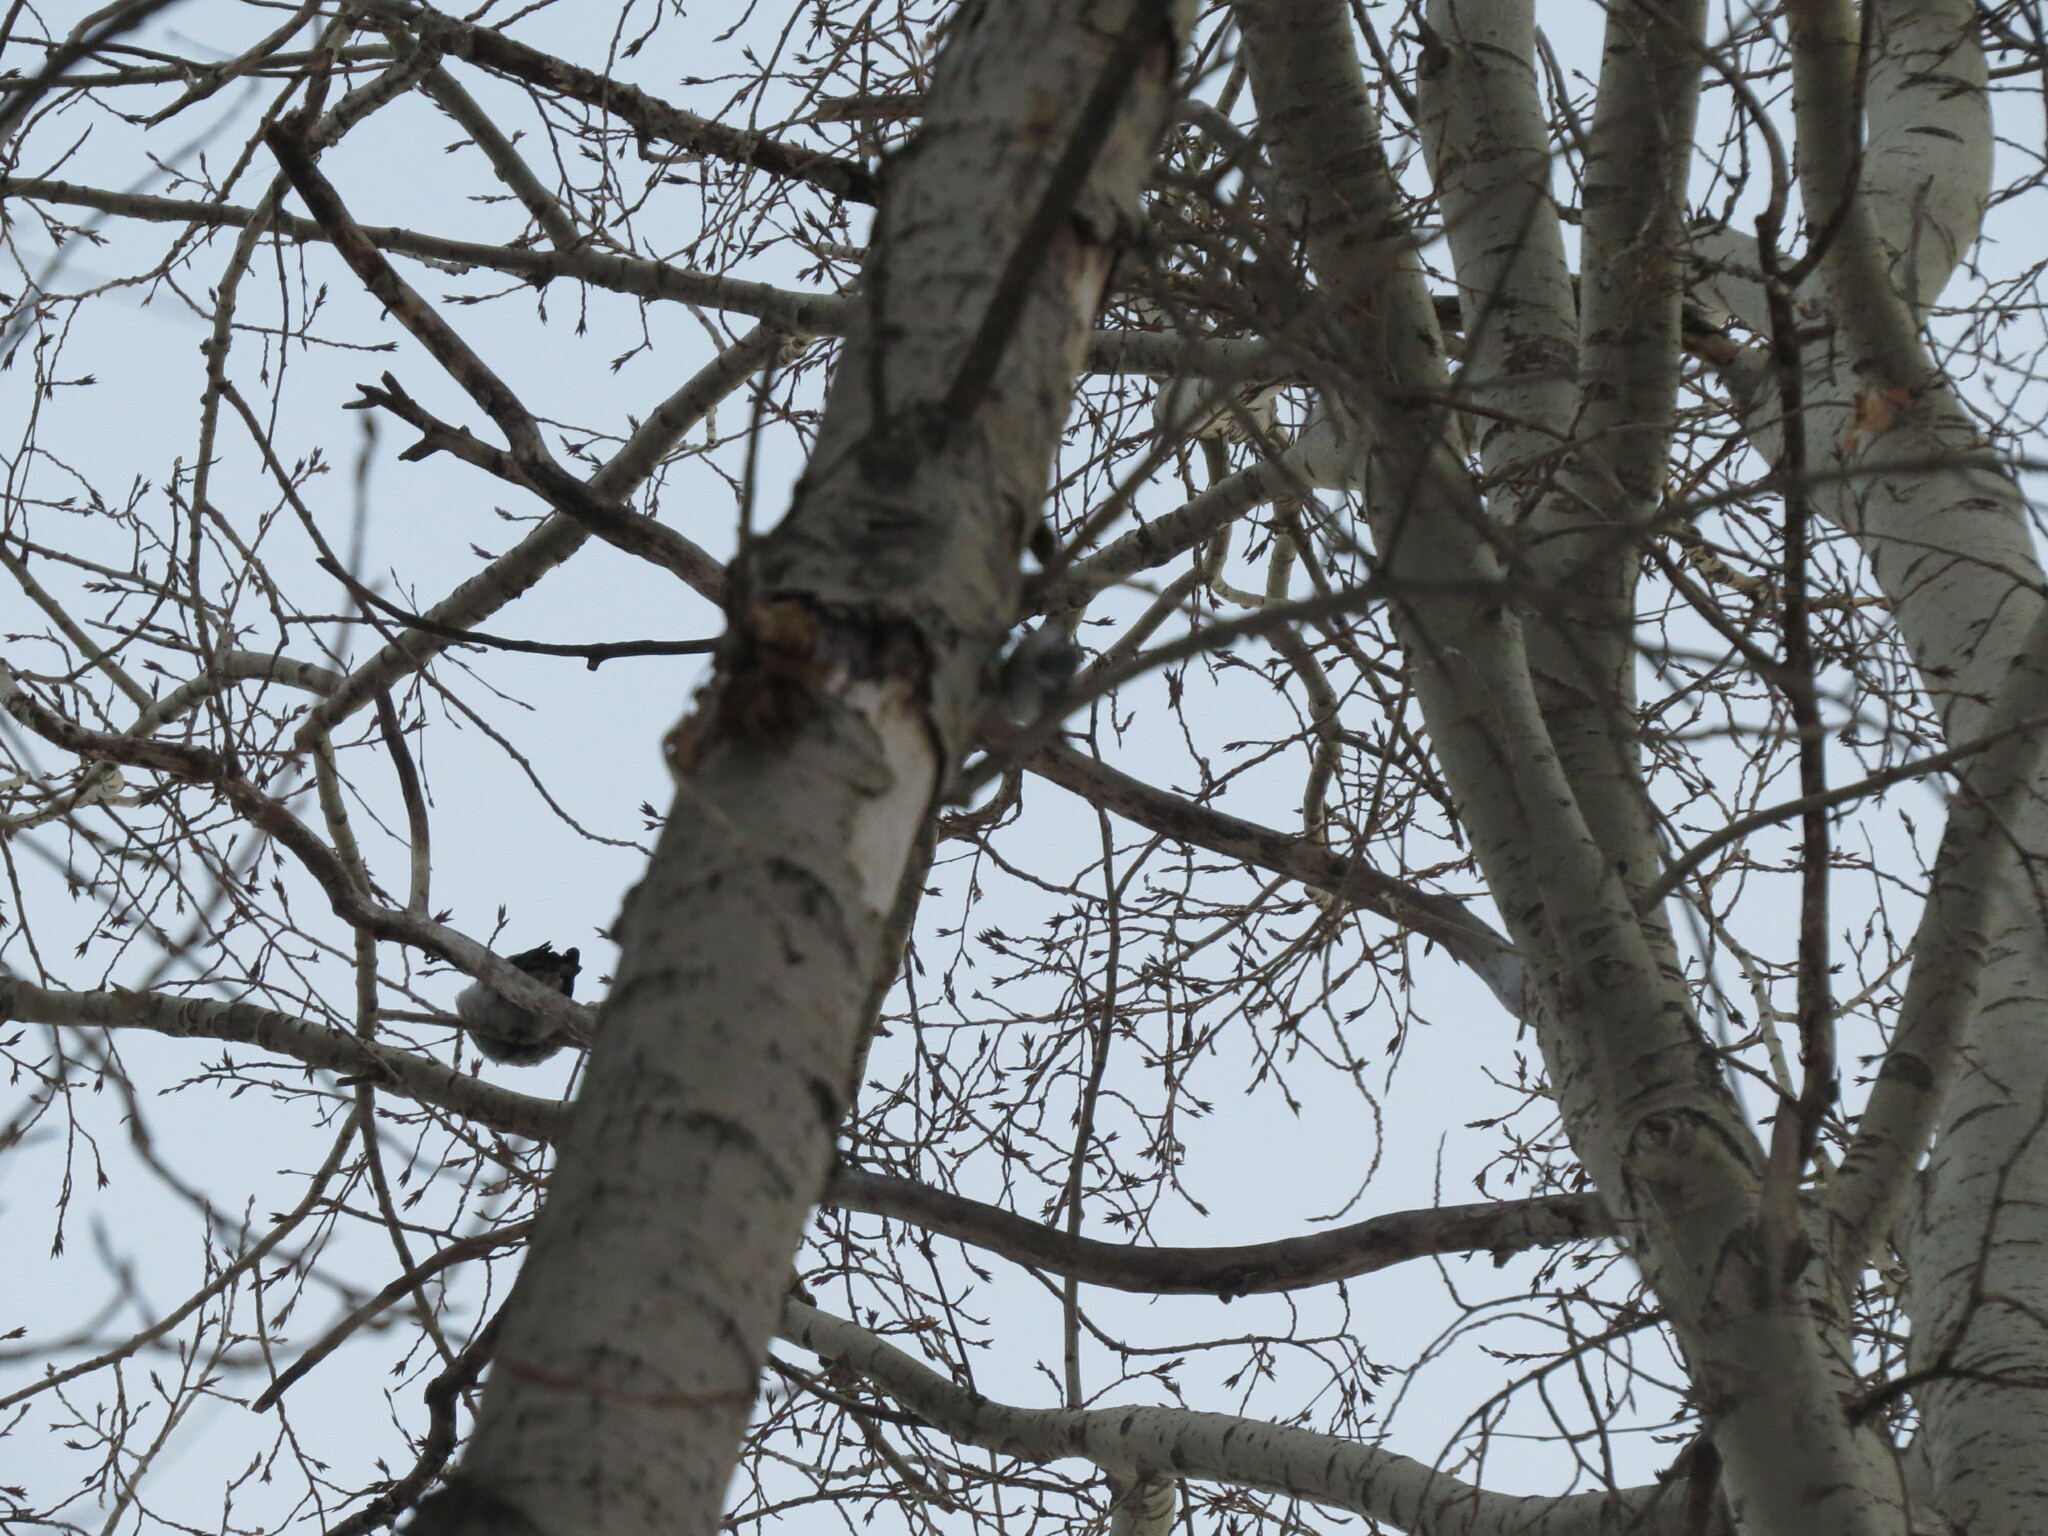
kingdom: Animalia
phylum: Chordata
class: Aves
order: Passeriformes
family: Sittidae
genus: Sitta
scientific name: Sitta europaea
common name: Eurasian nuthatch
